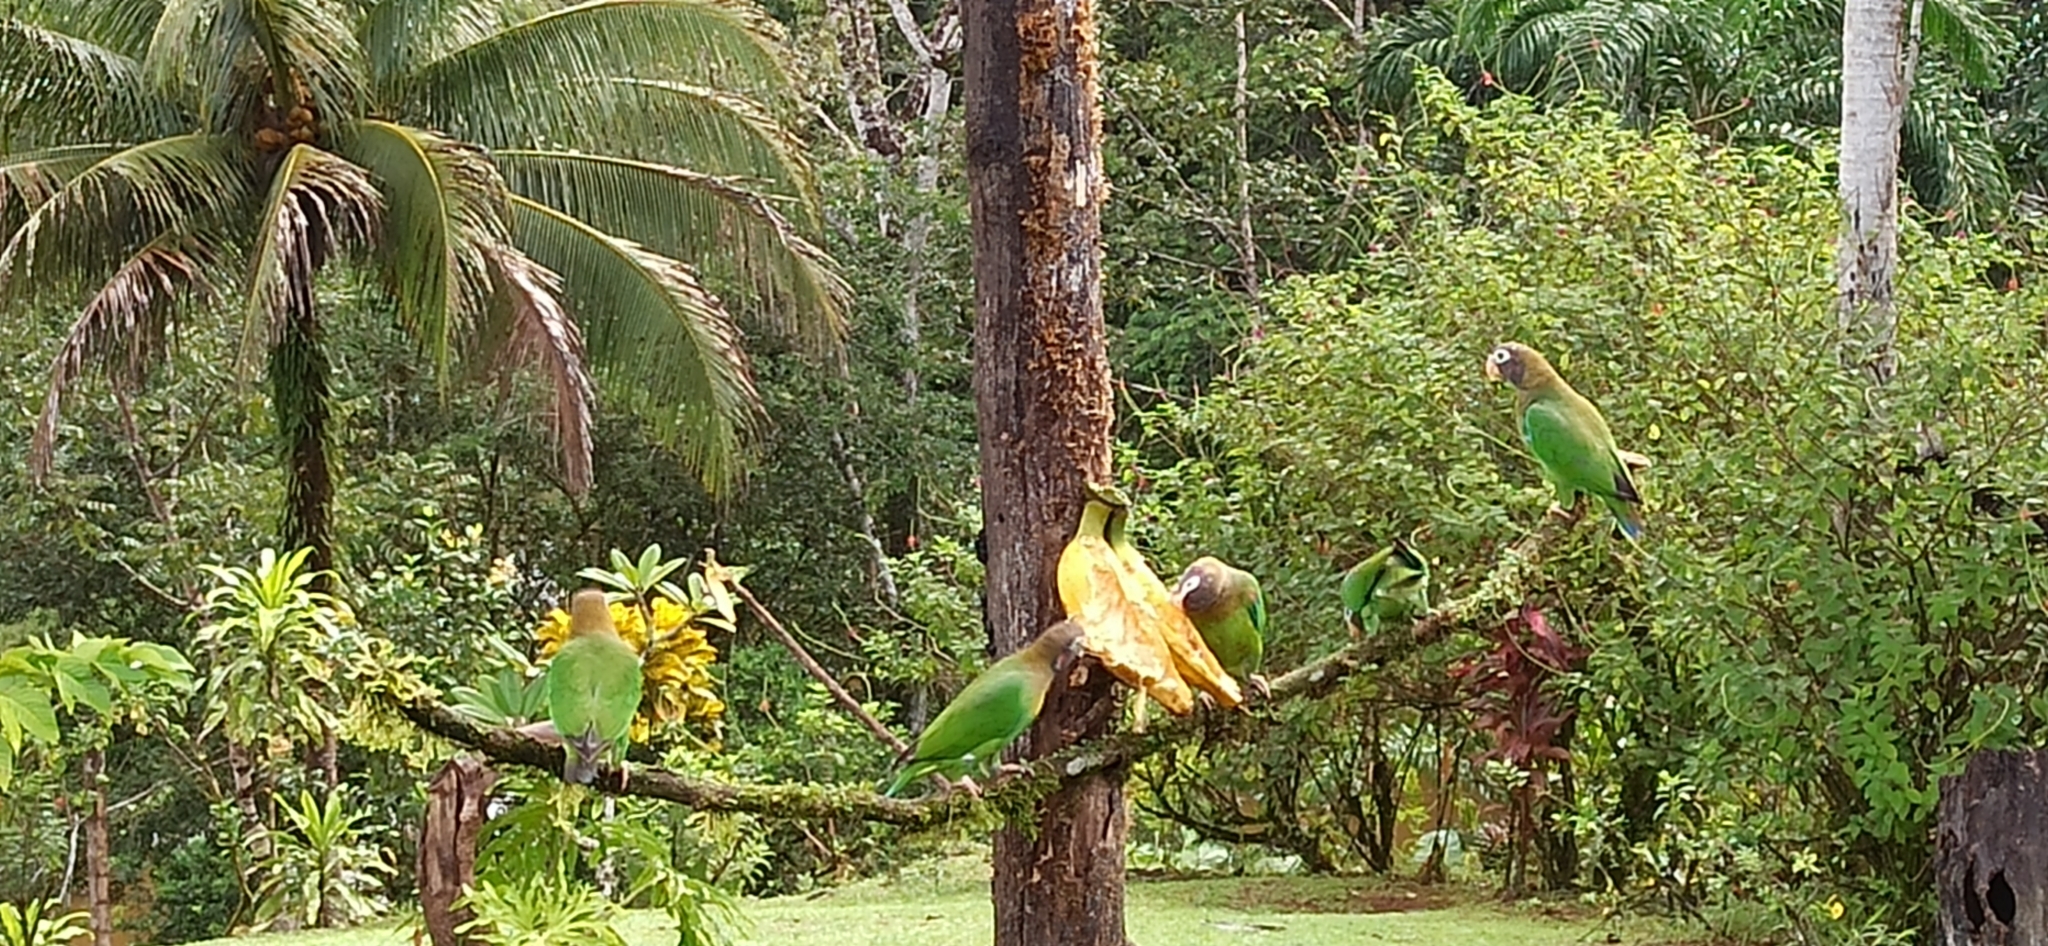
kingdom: Animalia
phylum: Chordata
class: Aves
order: Psittaciformes
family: Psittacidae
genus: Pionopsitta
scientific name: Pionopsitta haematotis
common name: Brown-hooded parrot
